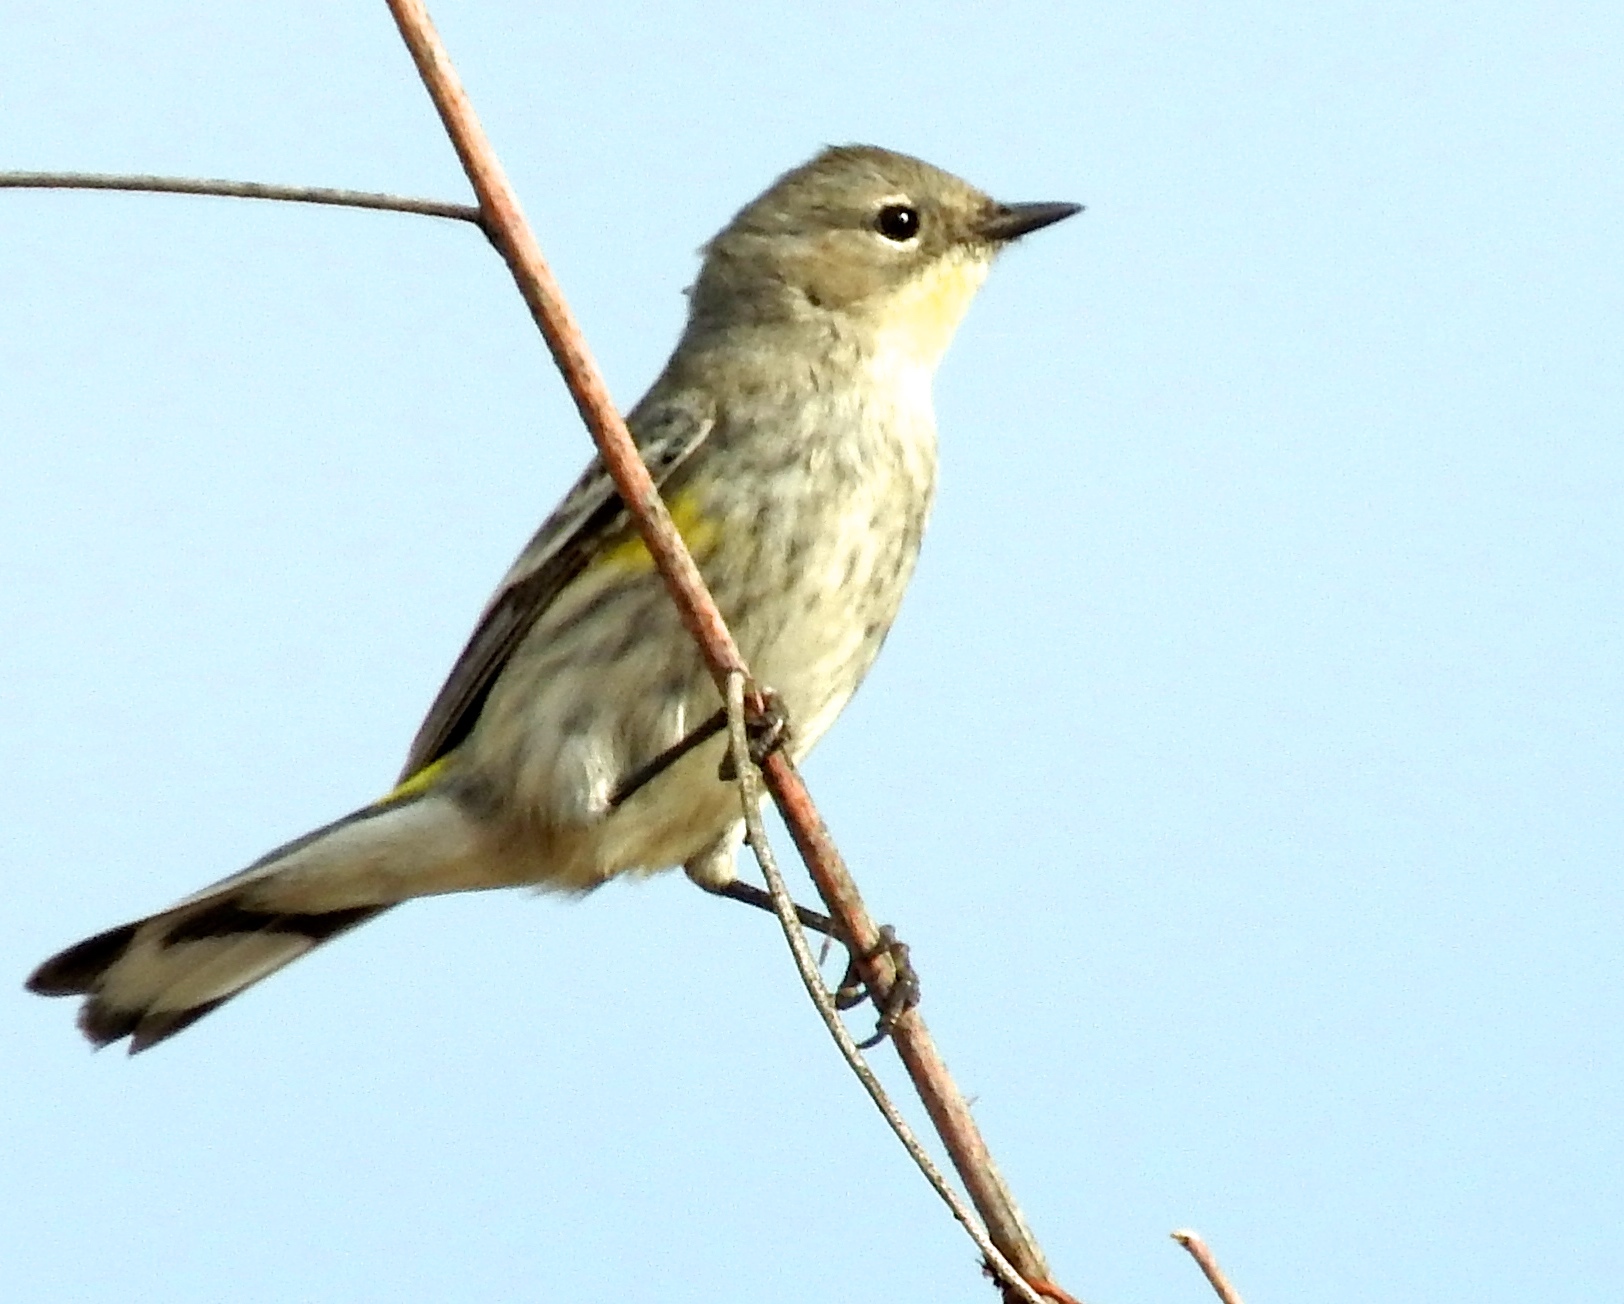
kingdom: Animalia
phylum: Chordata
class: Aves
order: Passeriformes
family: Parulidae
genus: Setophaga
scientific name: Setophaga coronata
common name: Myrtle warbler
